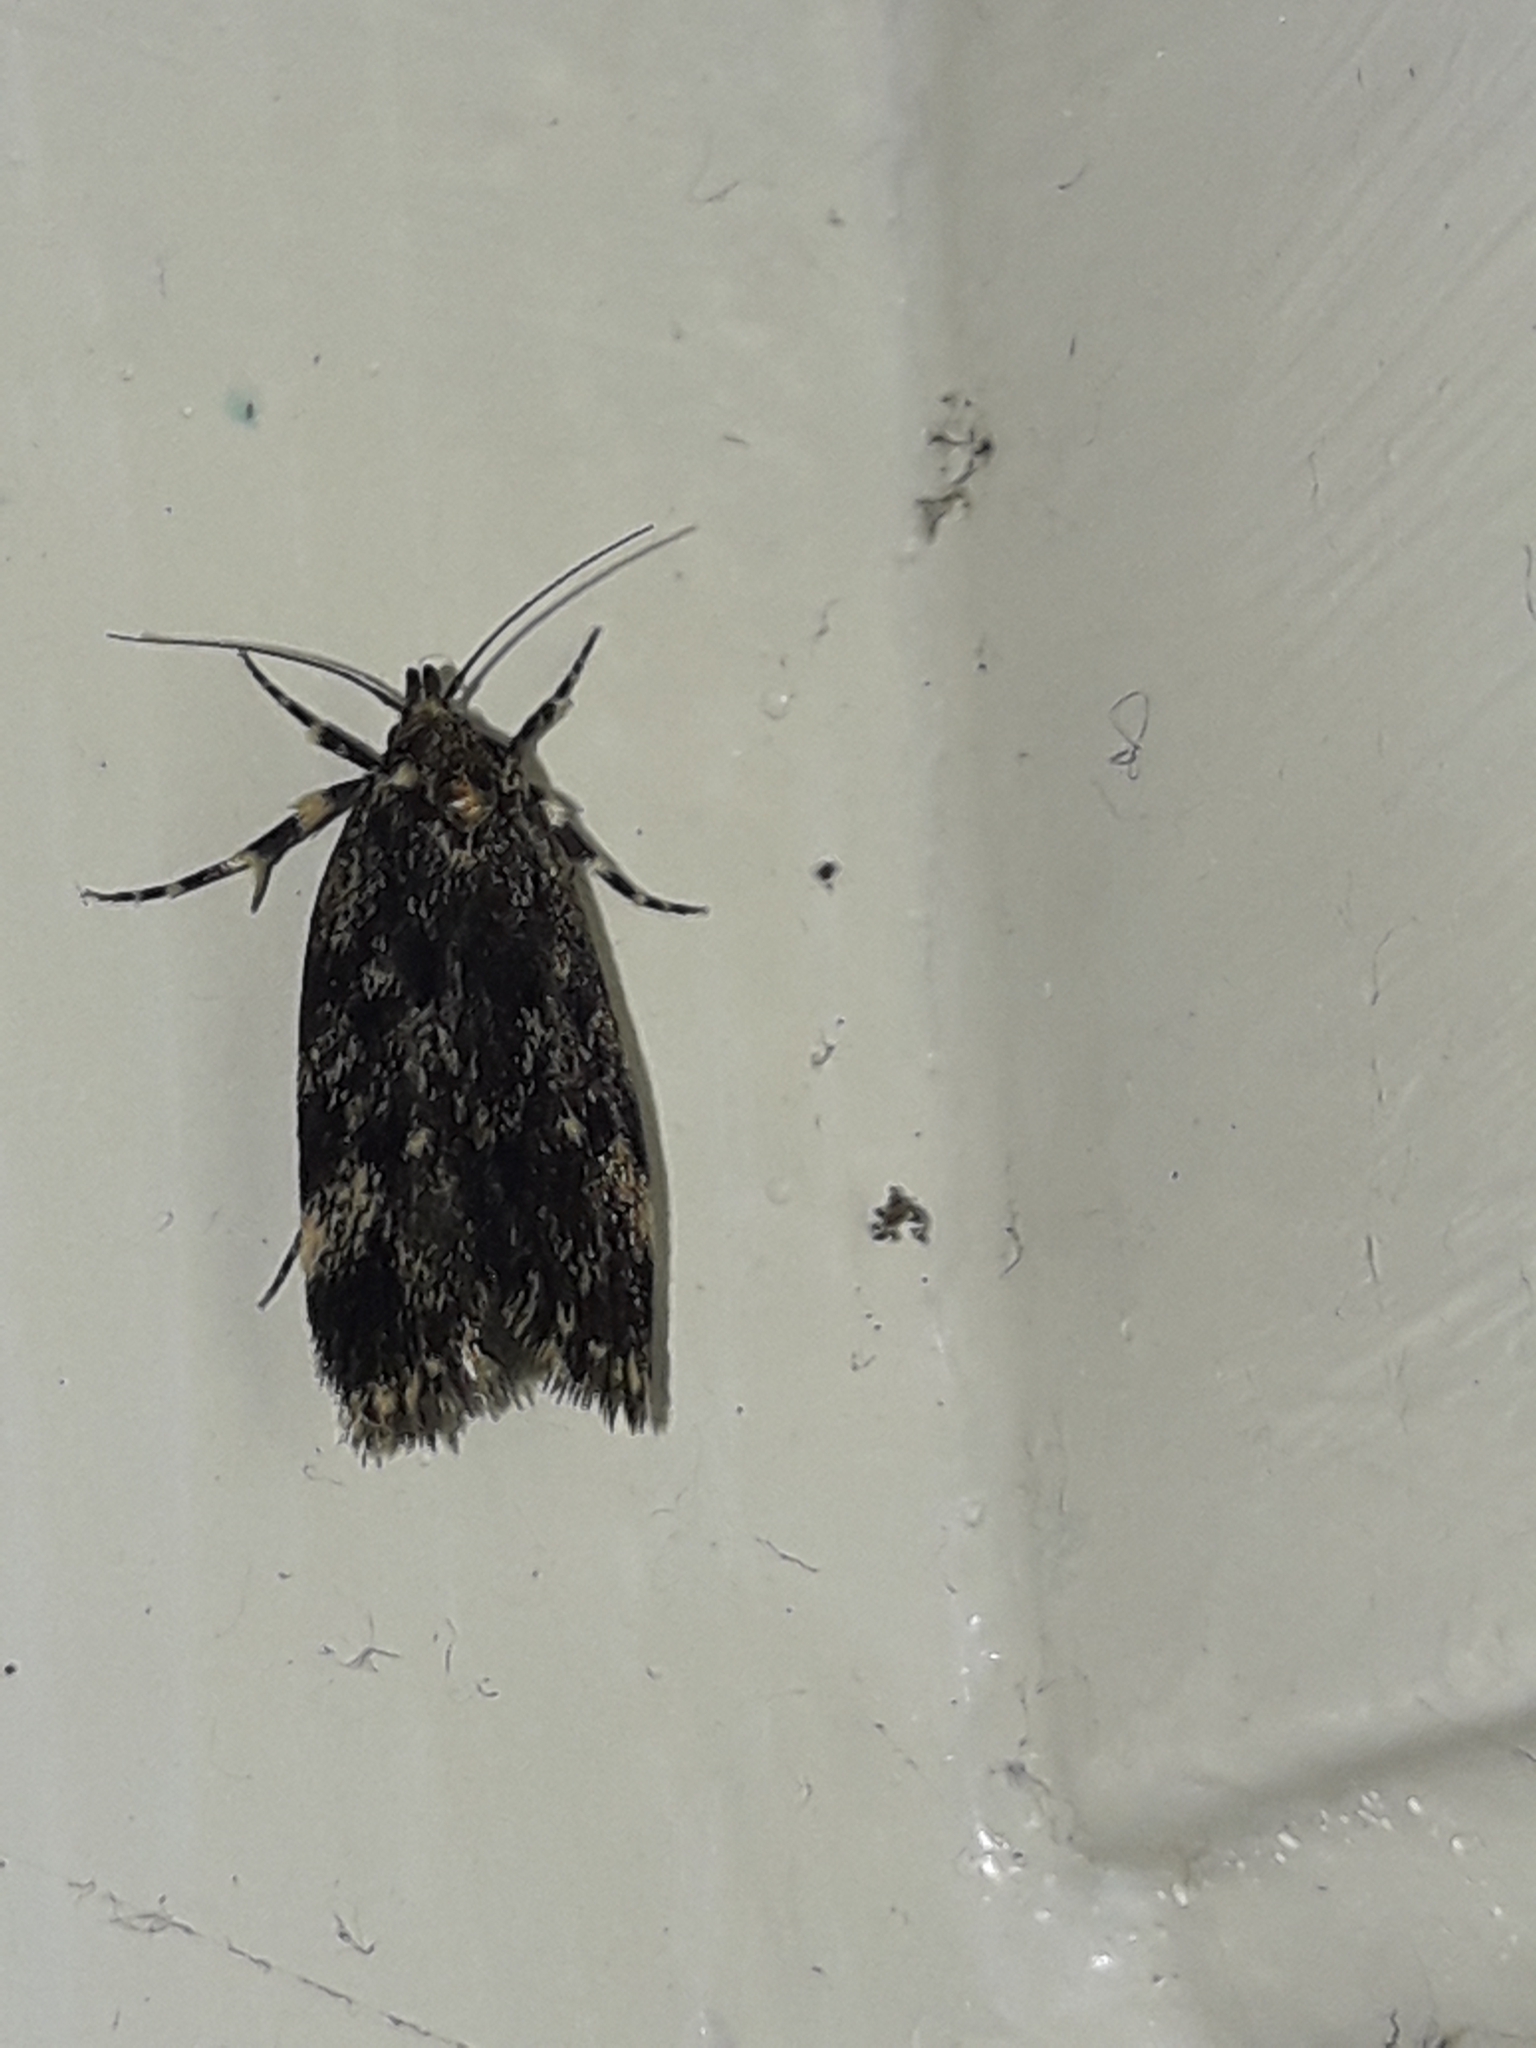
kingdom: Animalia
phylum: Arthropoda
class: Insecta
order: Lepidoptera
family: Oecophoridae
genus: Barea
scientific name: Barea codrella
